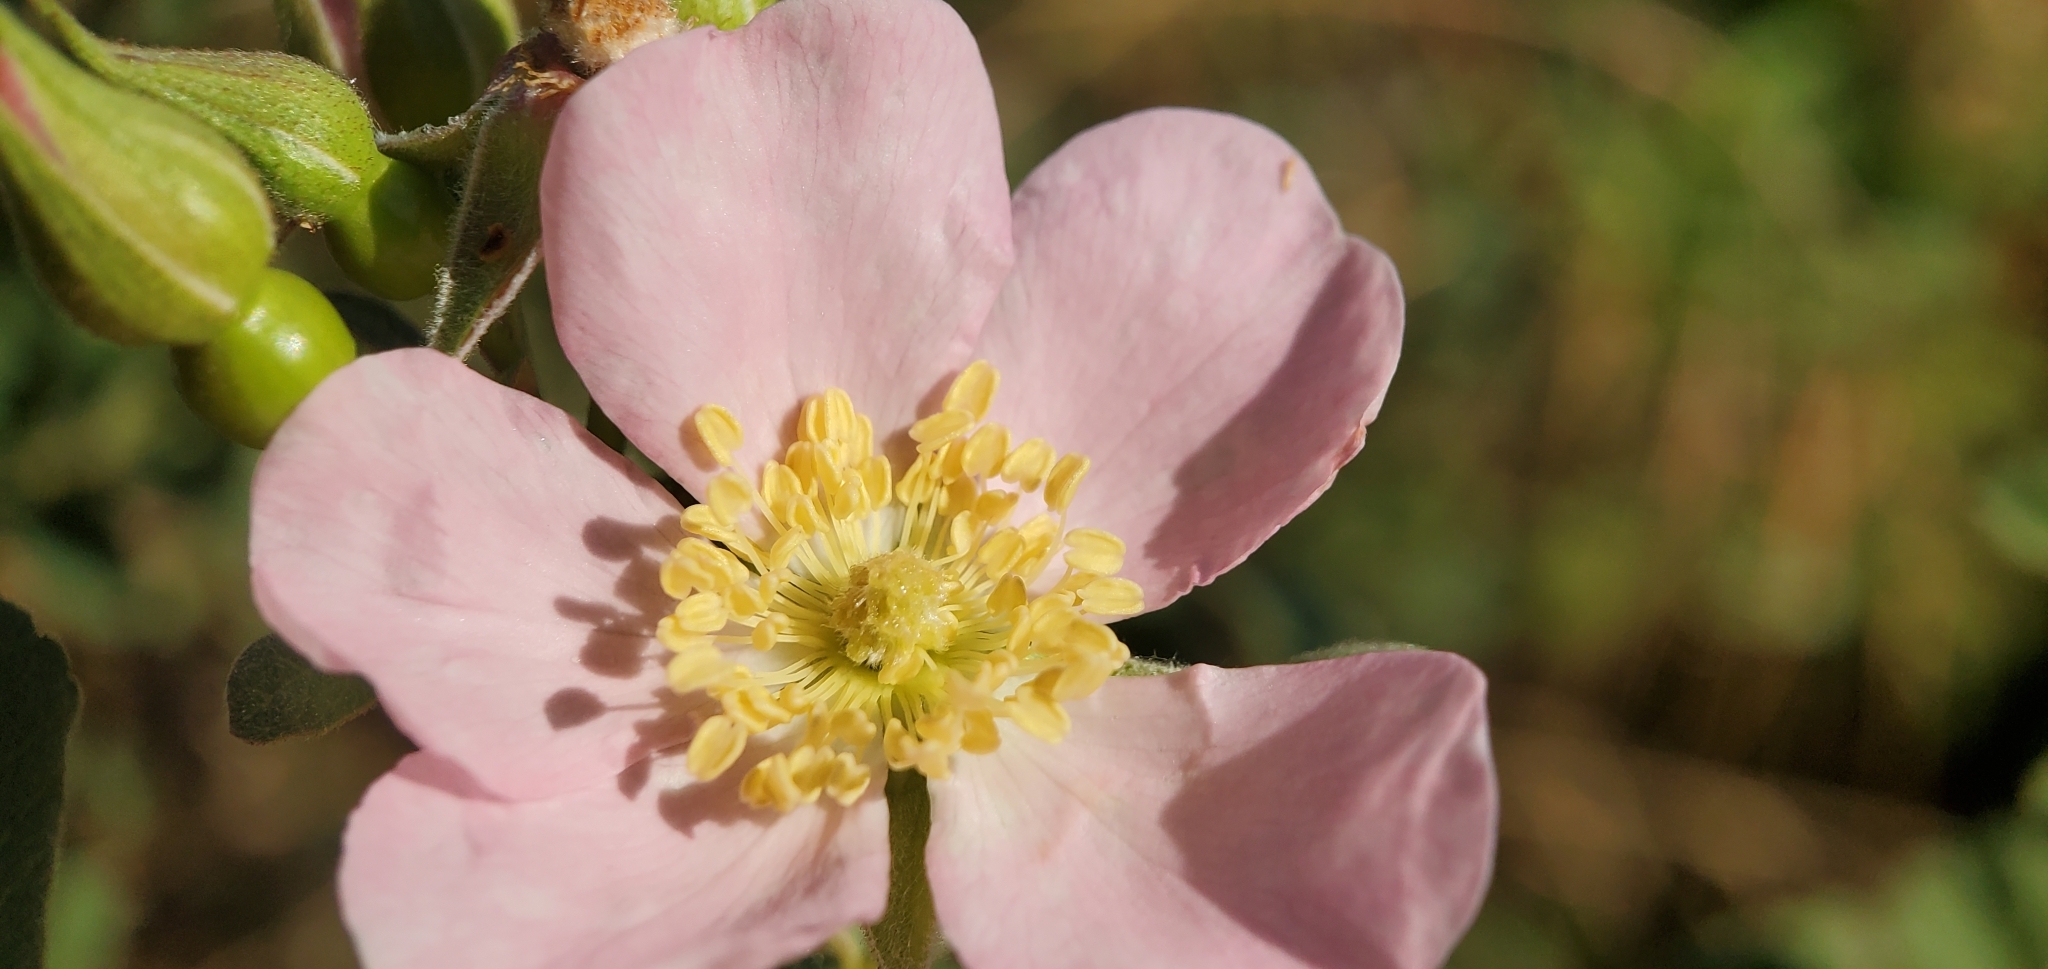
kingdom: Plantae
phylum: Tracheophyta
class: Magnoliopsida
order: Rosales
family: Rosaceae
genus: Rosa
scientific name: Rosa californica
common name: California rose
